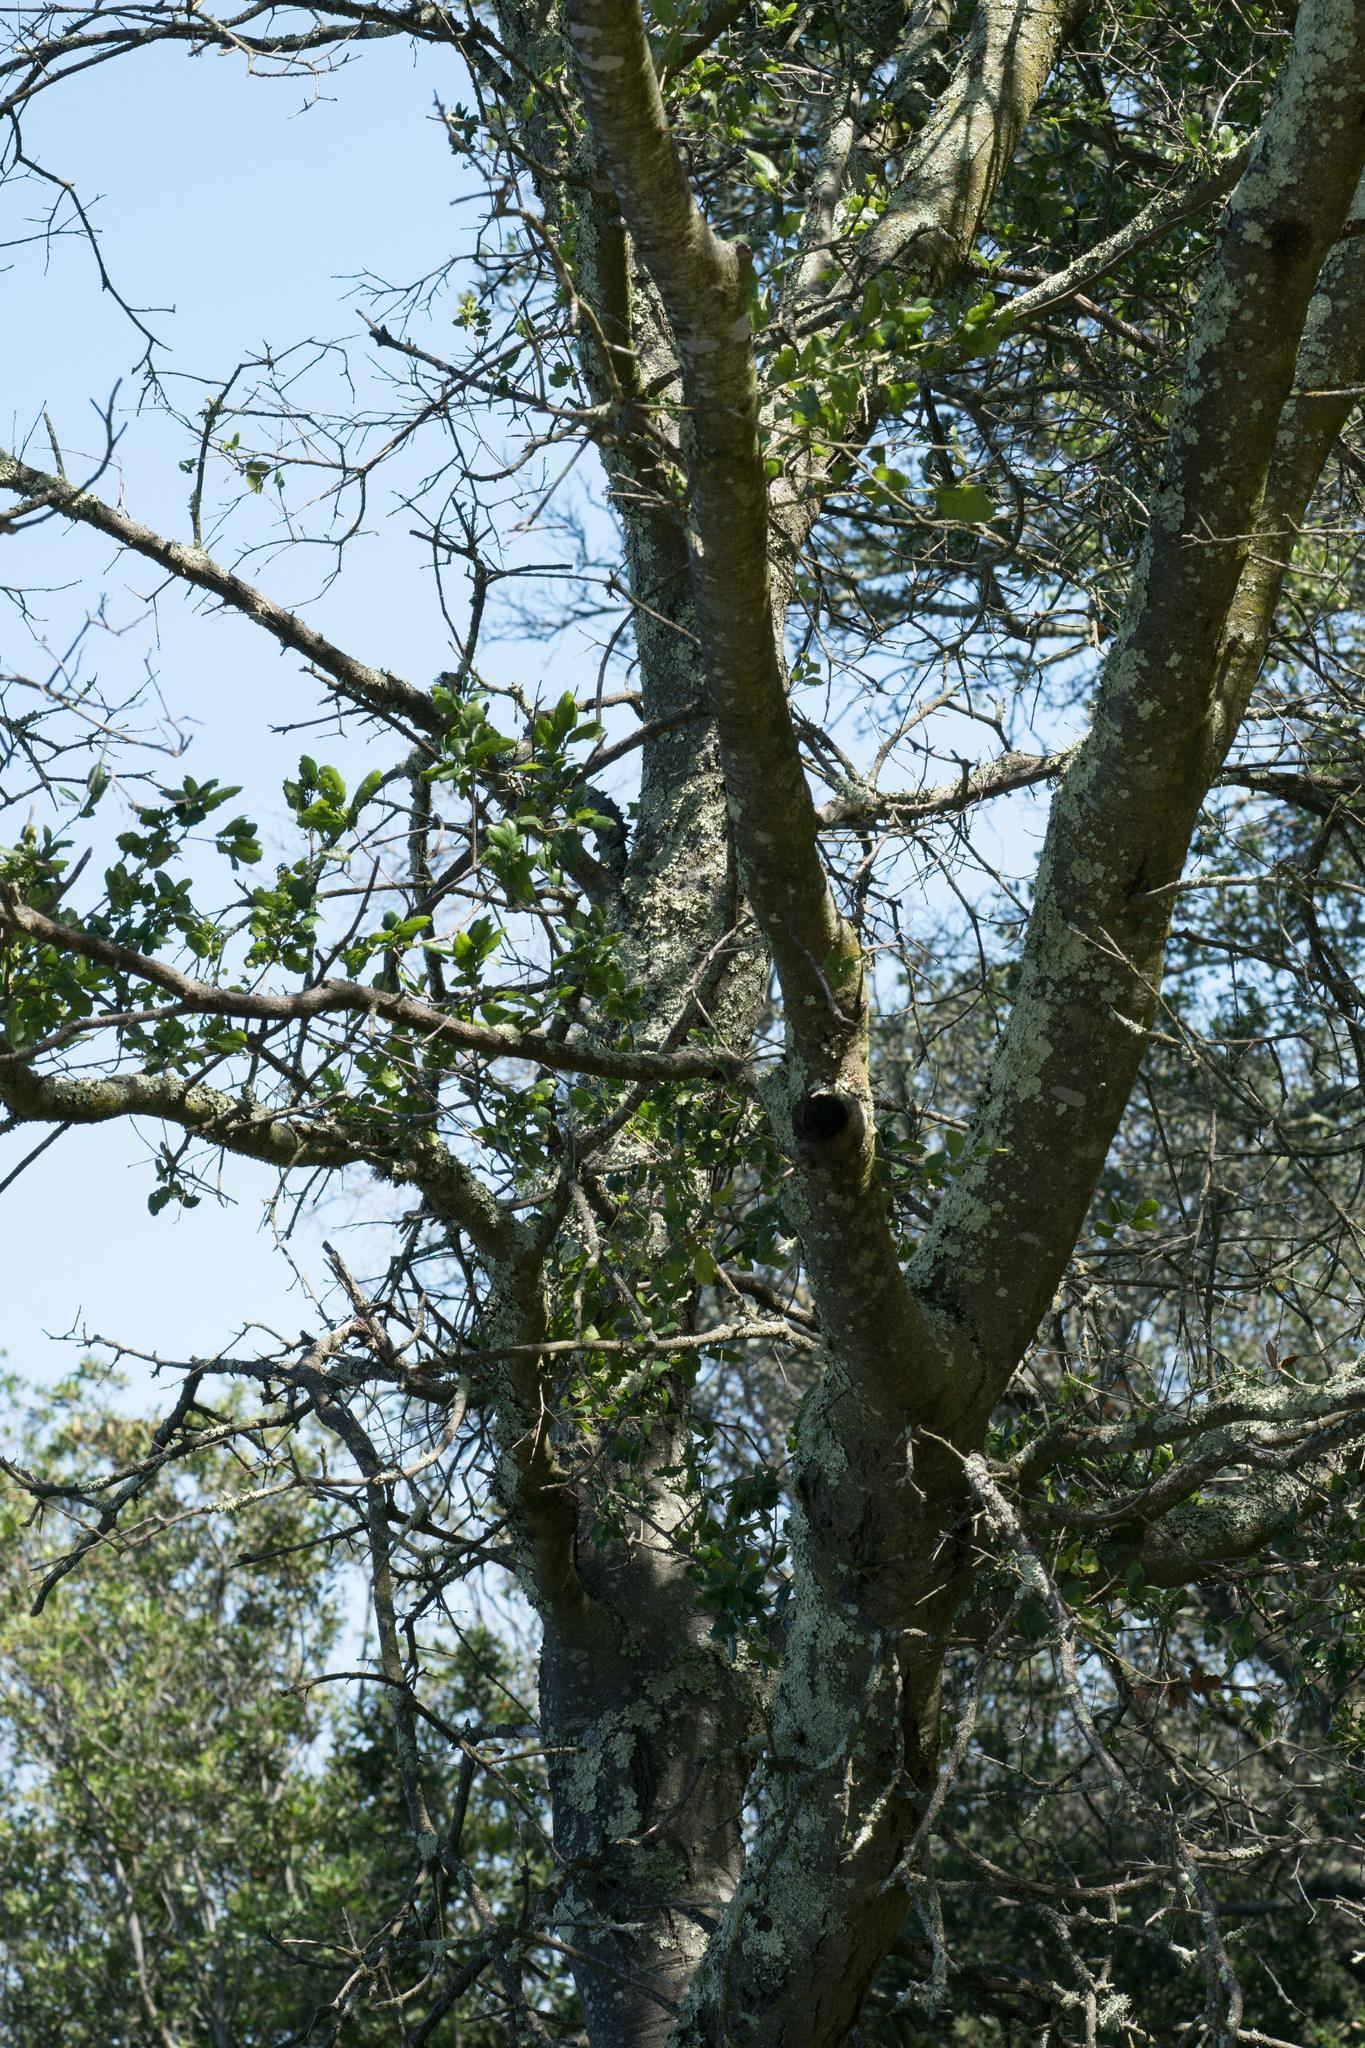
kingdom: Plantae
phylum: Tracheophyta
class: Magnoliopsida
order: Fagales
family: Fagaceae
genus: Quercus
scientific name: Quercus agrifolia
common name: California live oak
